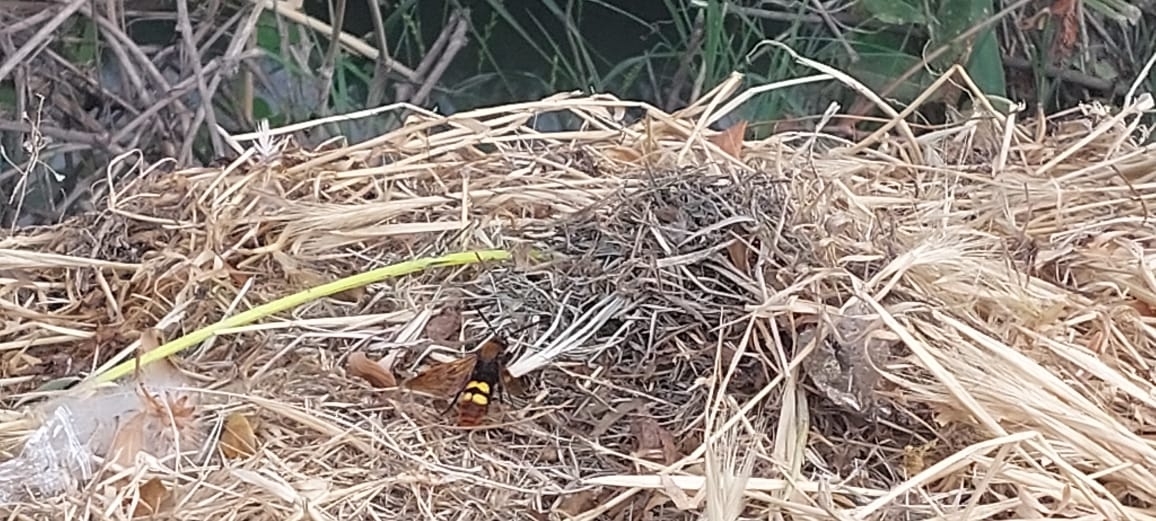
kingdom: Animalia
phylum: Arthropoda
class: Insecta
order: Hymenoptera
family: Scoliidae
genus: Megascolia
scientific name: Megascolia maculata
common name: Mammoth wasp
